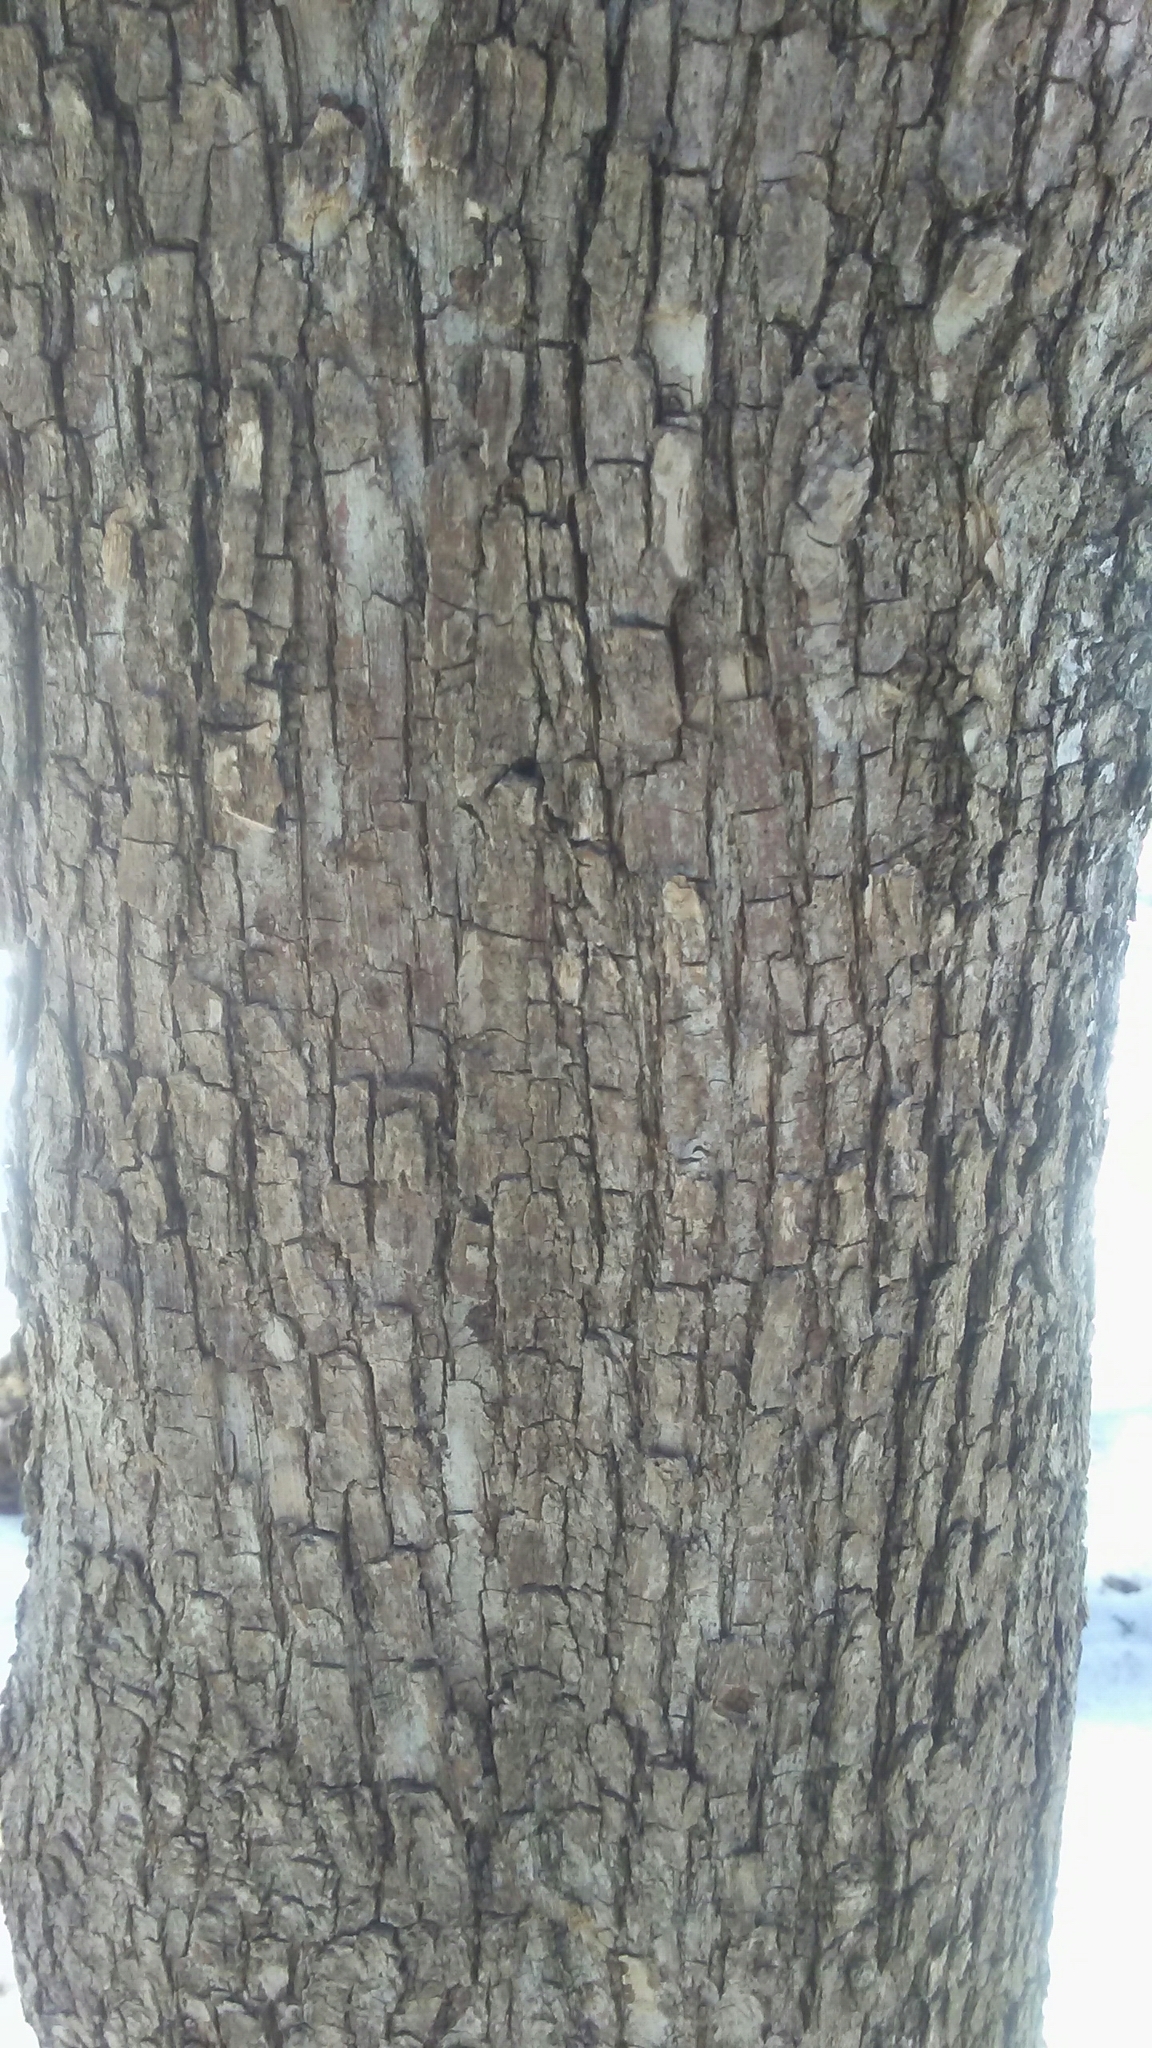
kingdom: Plantae
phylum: Tracheophyta
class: Magnoliopsida
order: Fagales
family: Betulaceae
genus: Ostrya
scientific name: Ostrya virginiana
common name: Ironwood
